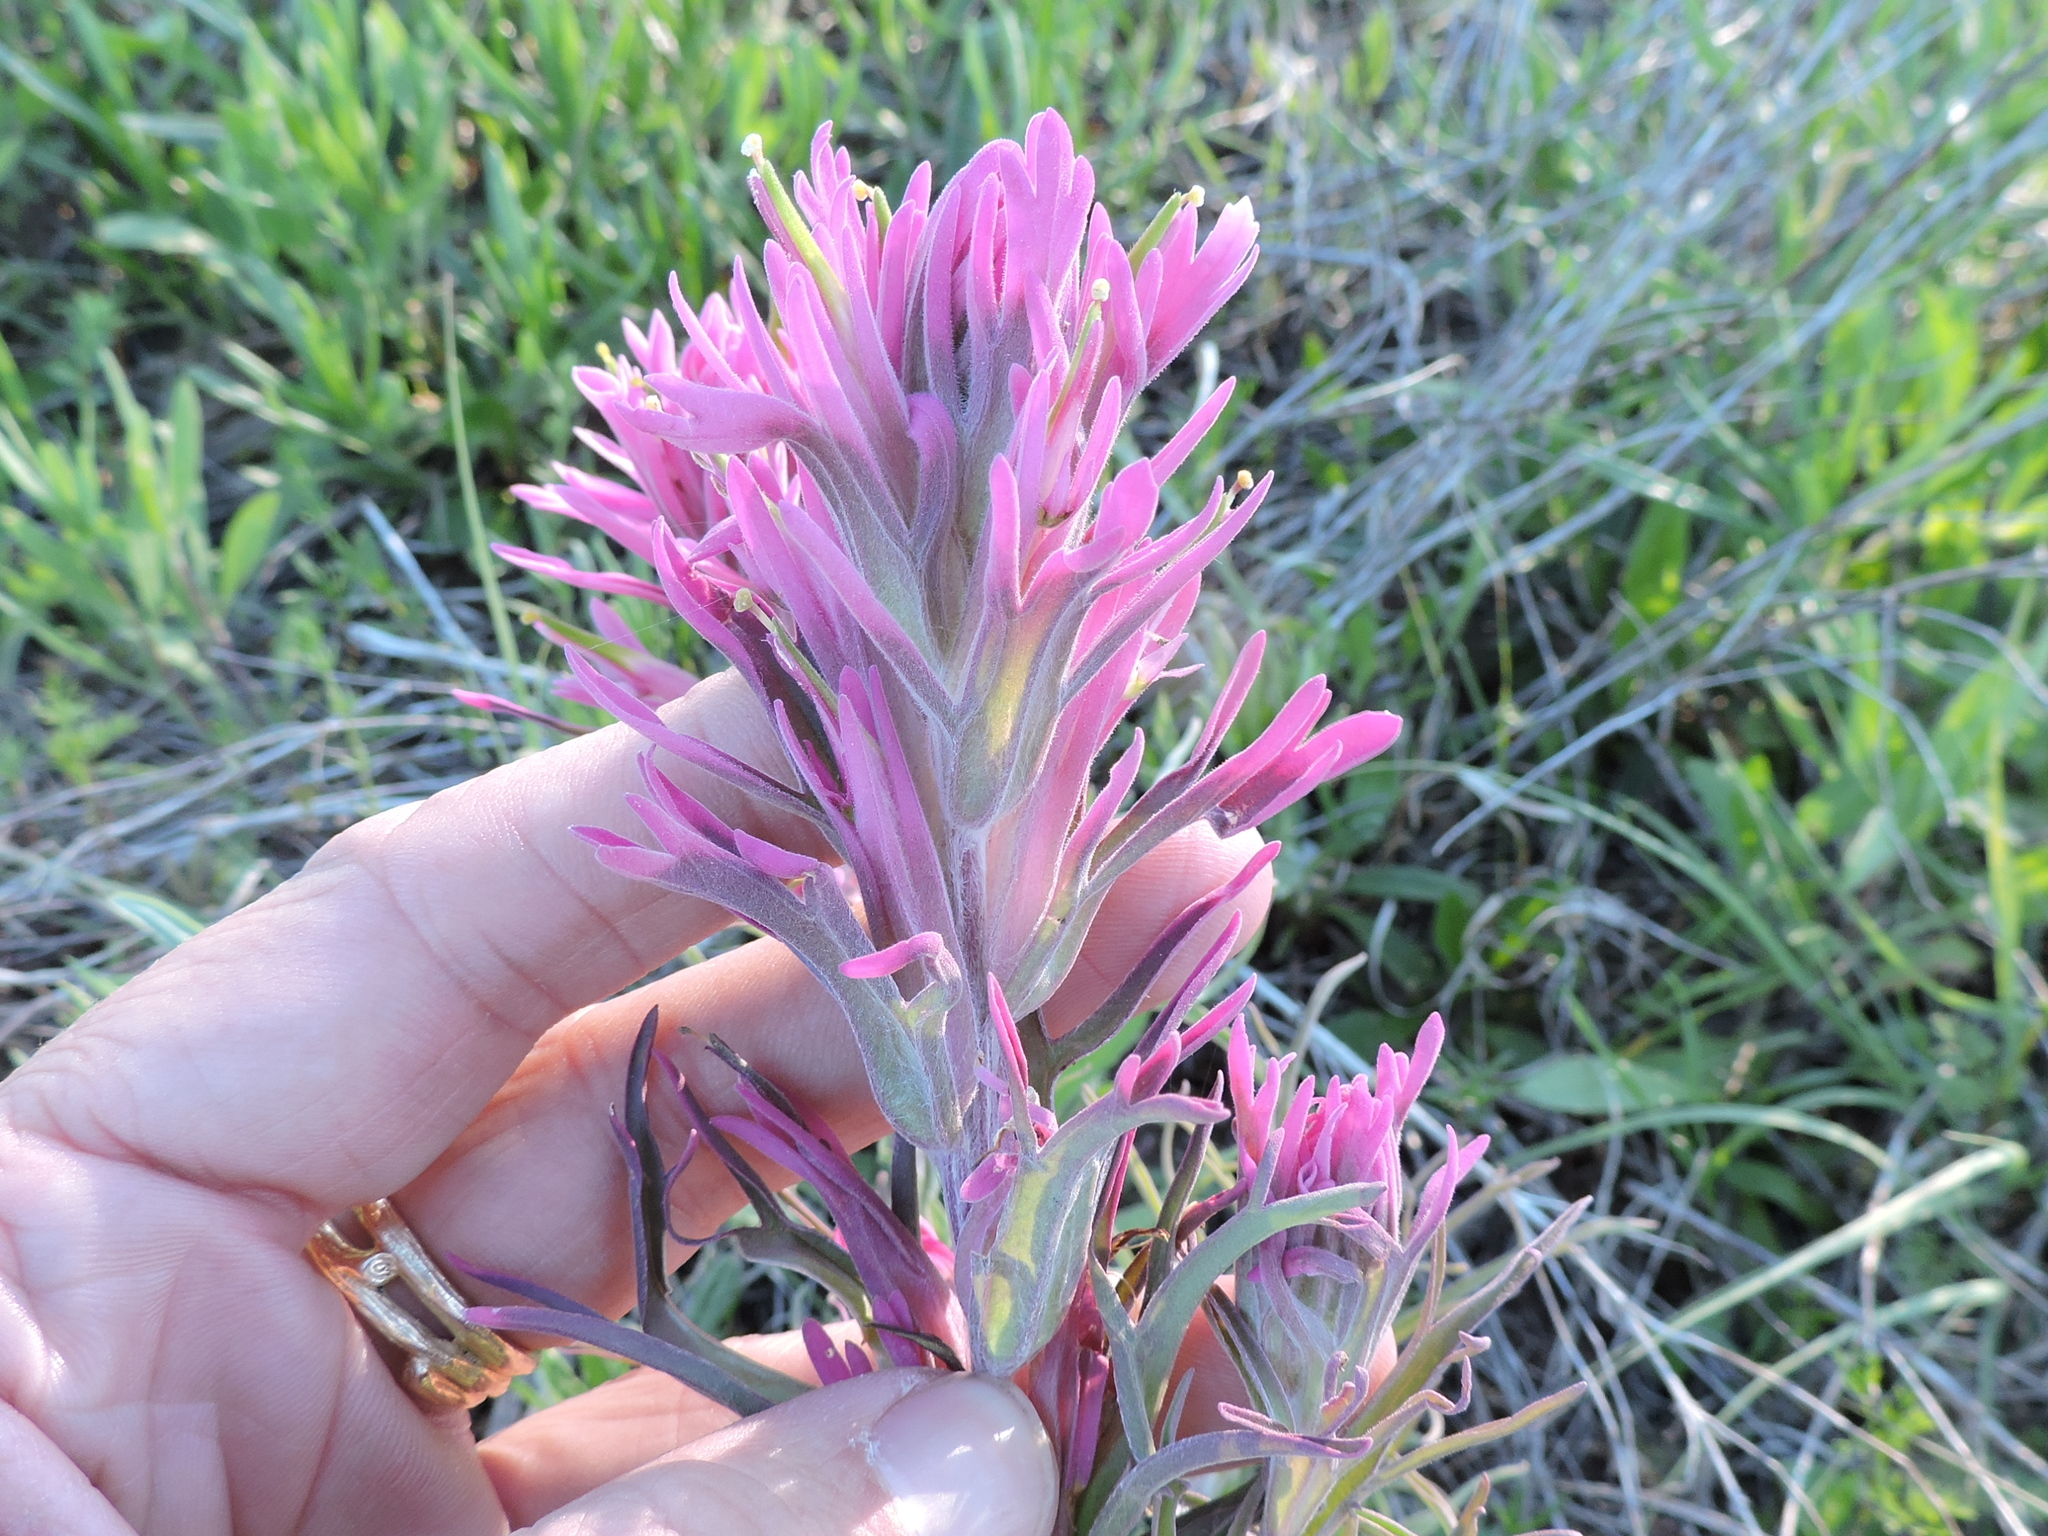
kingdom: Plantae
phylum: Tracheophyta
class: Magnoliopsida
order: Lamiales
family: Orobanchaceae
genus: Castilleja
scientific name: Castilleja purpurea
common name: Plains paintbrush
